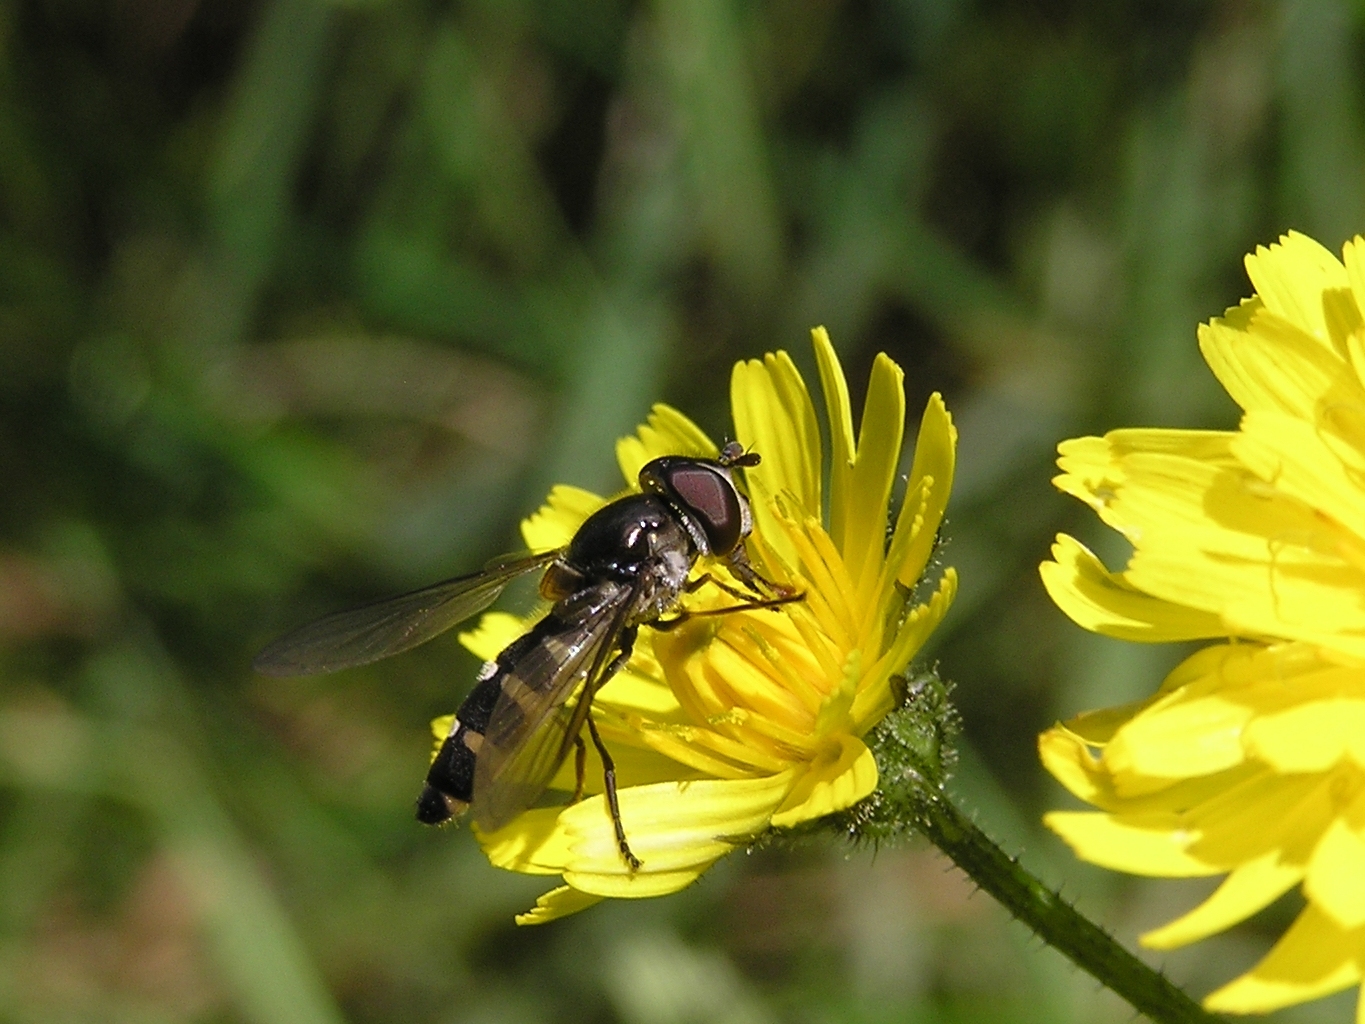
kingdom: Animalia
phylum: Arthropoda
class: Insecta
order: Diptera
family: Syrphidae
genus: Melangyna
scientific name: Melangyna novaezelandiae
